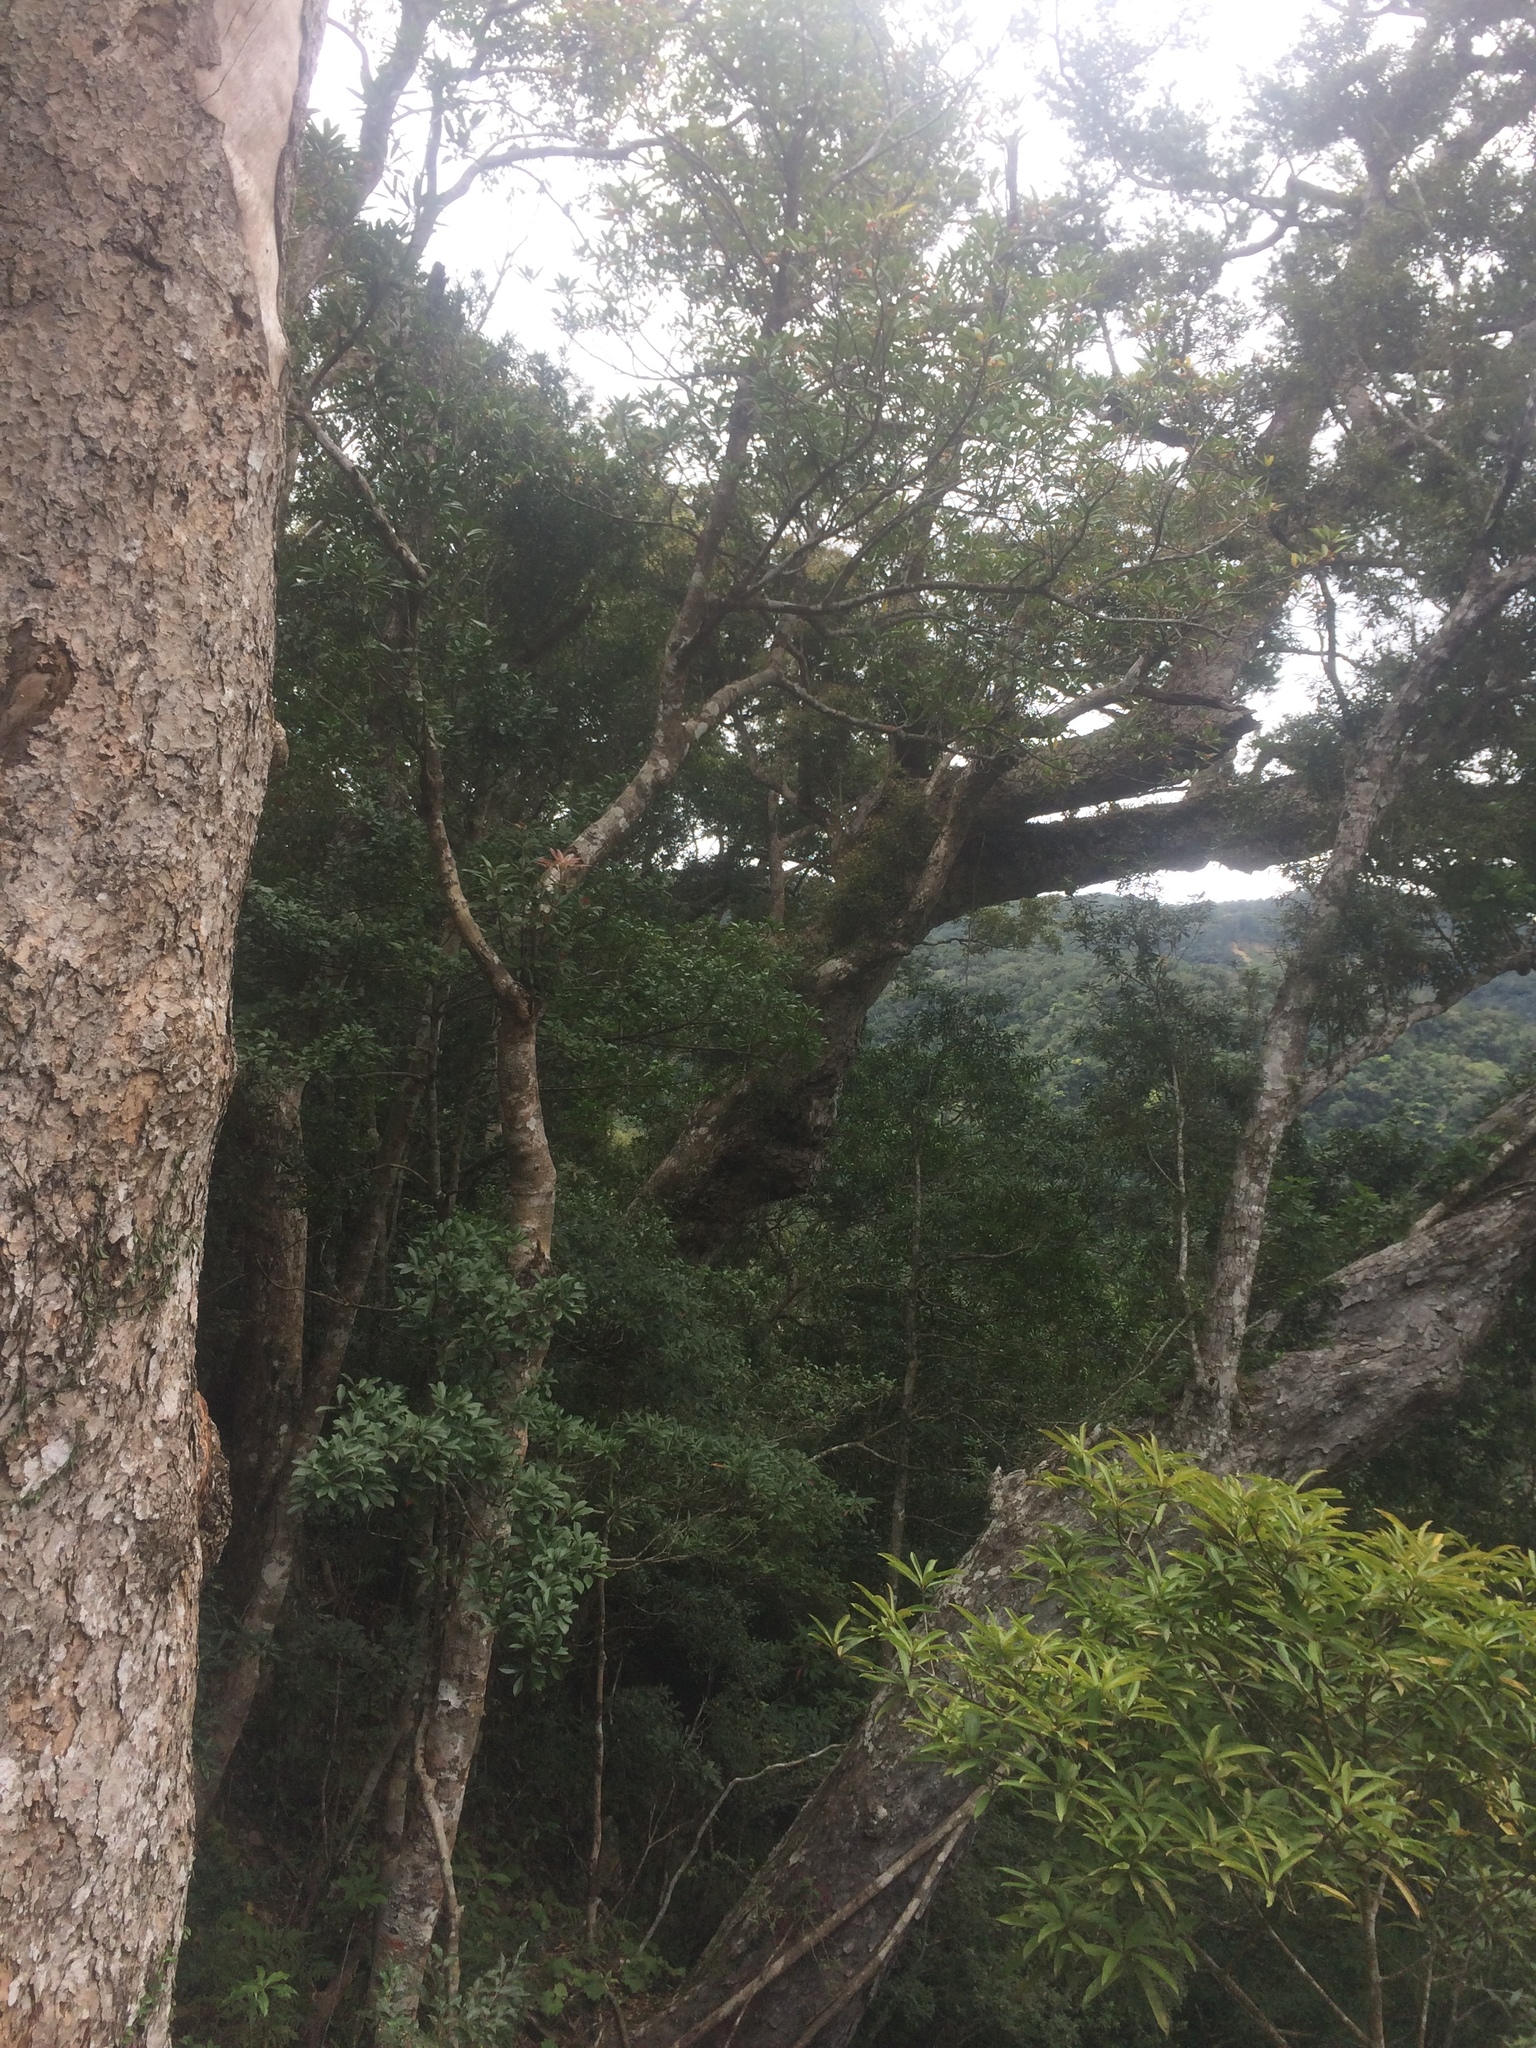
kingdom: Plantae
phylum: Tracheophyta
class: Pinopsida
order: Pinales
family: Pinaceae
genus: Keteleeria
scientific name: Keteleeria davidiana
